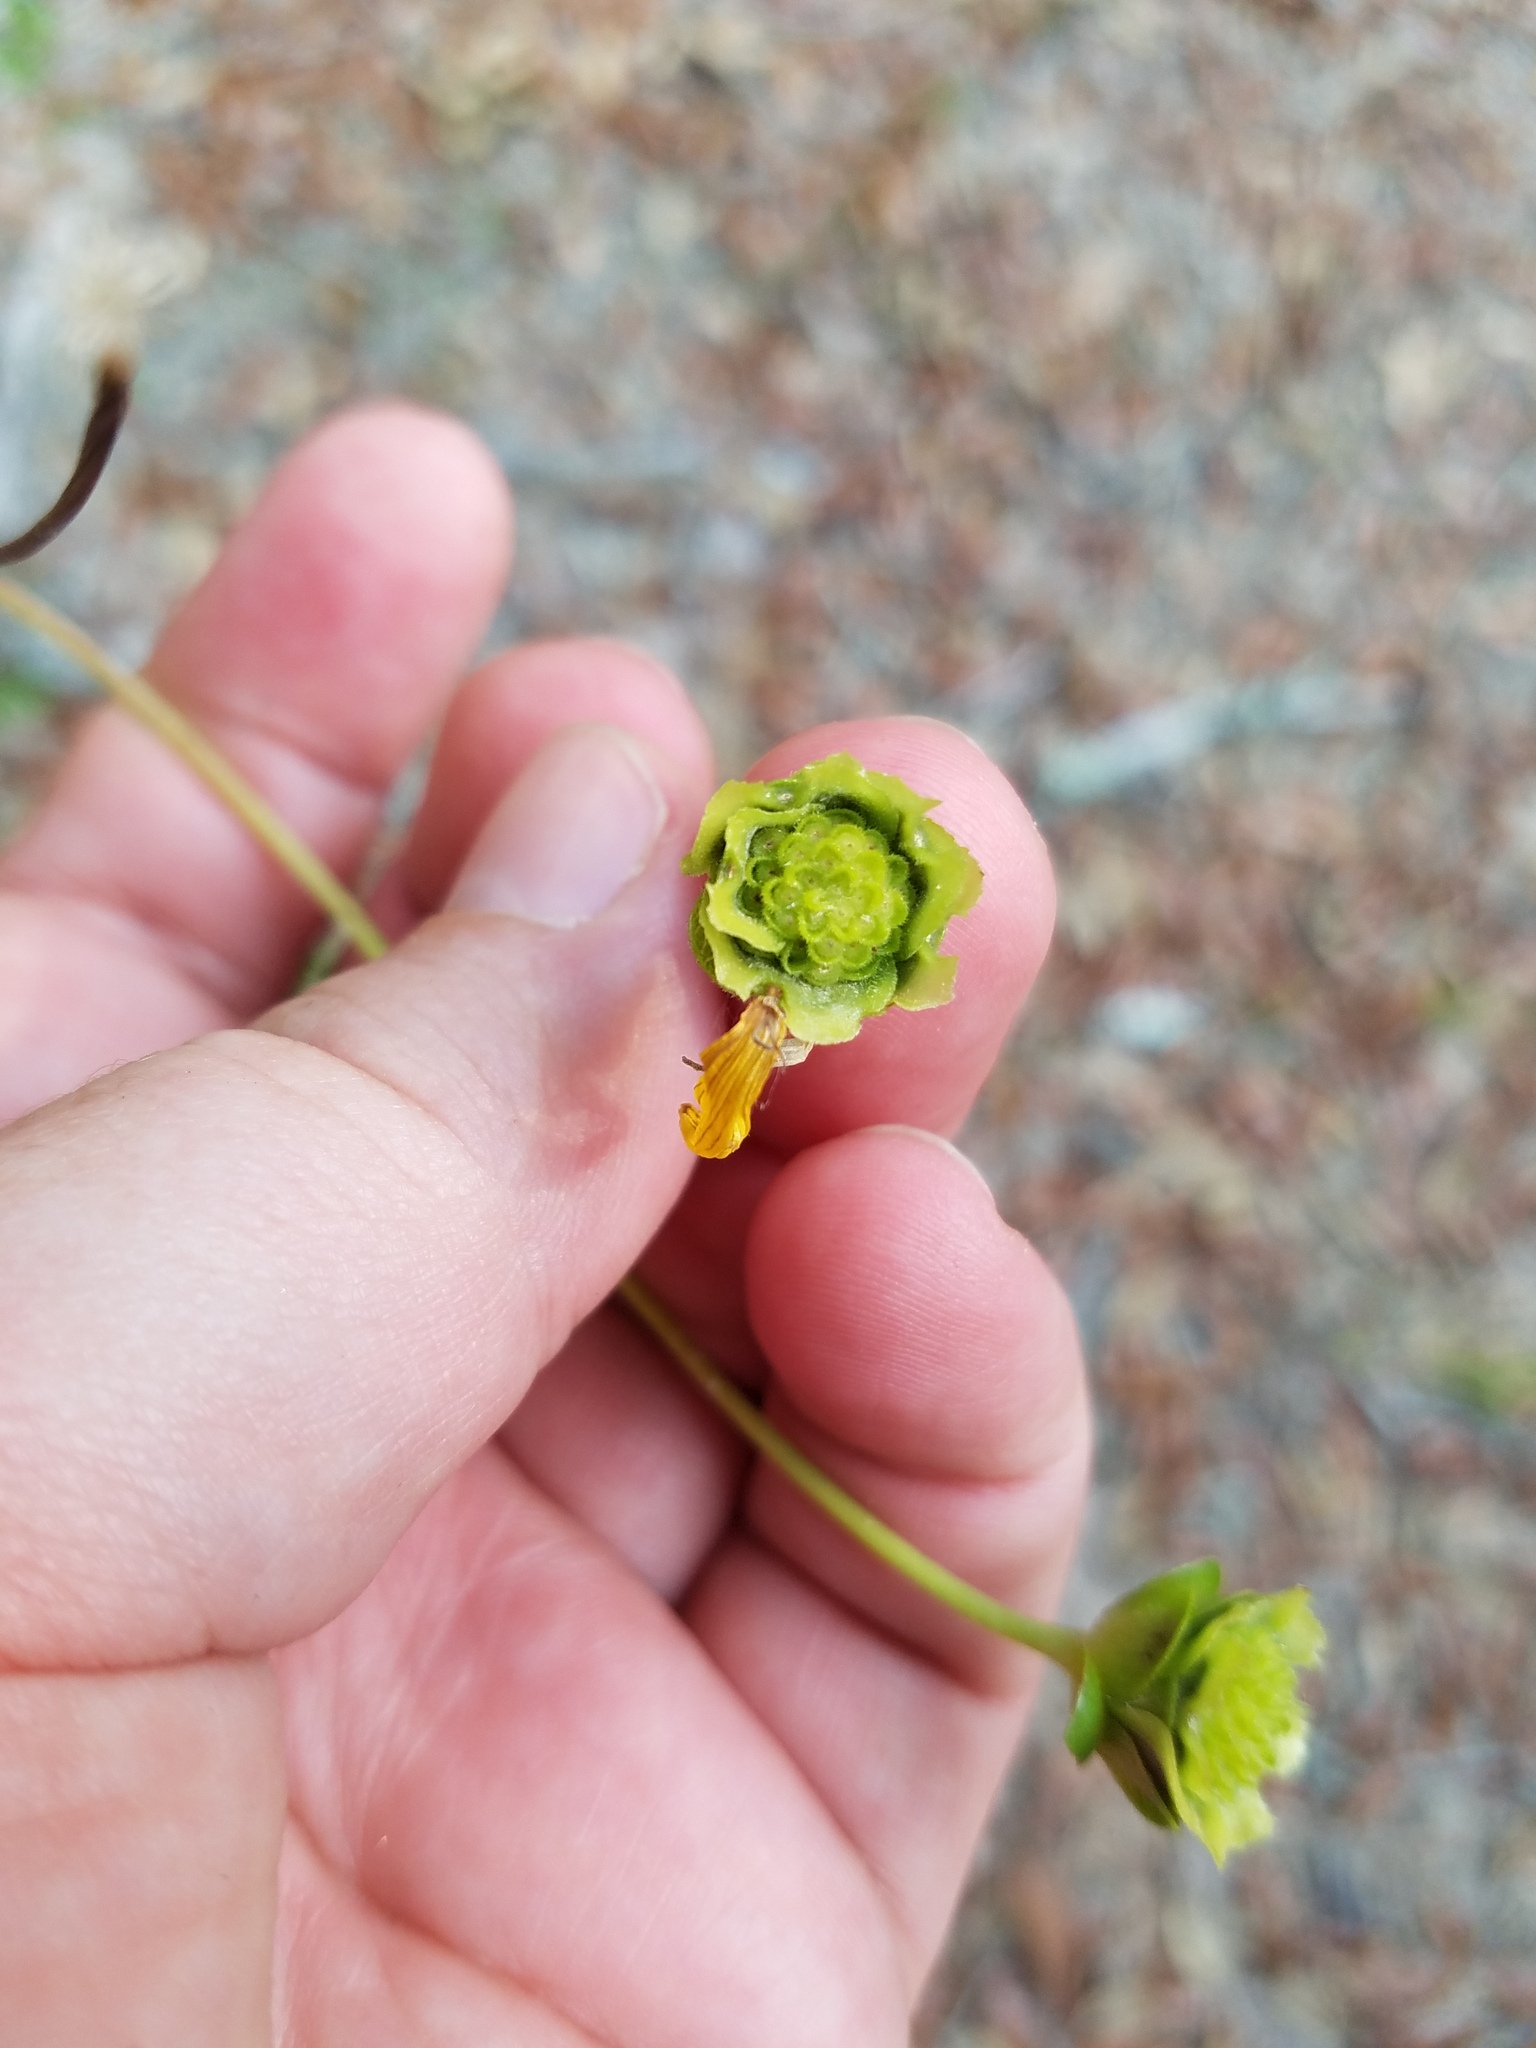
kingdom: Plantae
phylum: Tracheophyta
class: Magnoliopsida
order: Asterales
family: Asteraceae
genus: Silphium
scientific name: Silphium compositum
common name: Lesser basal-leaf rosinweed
